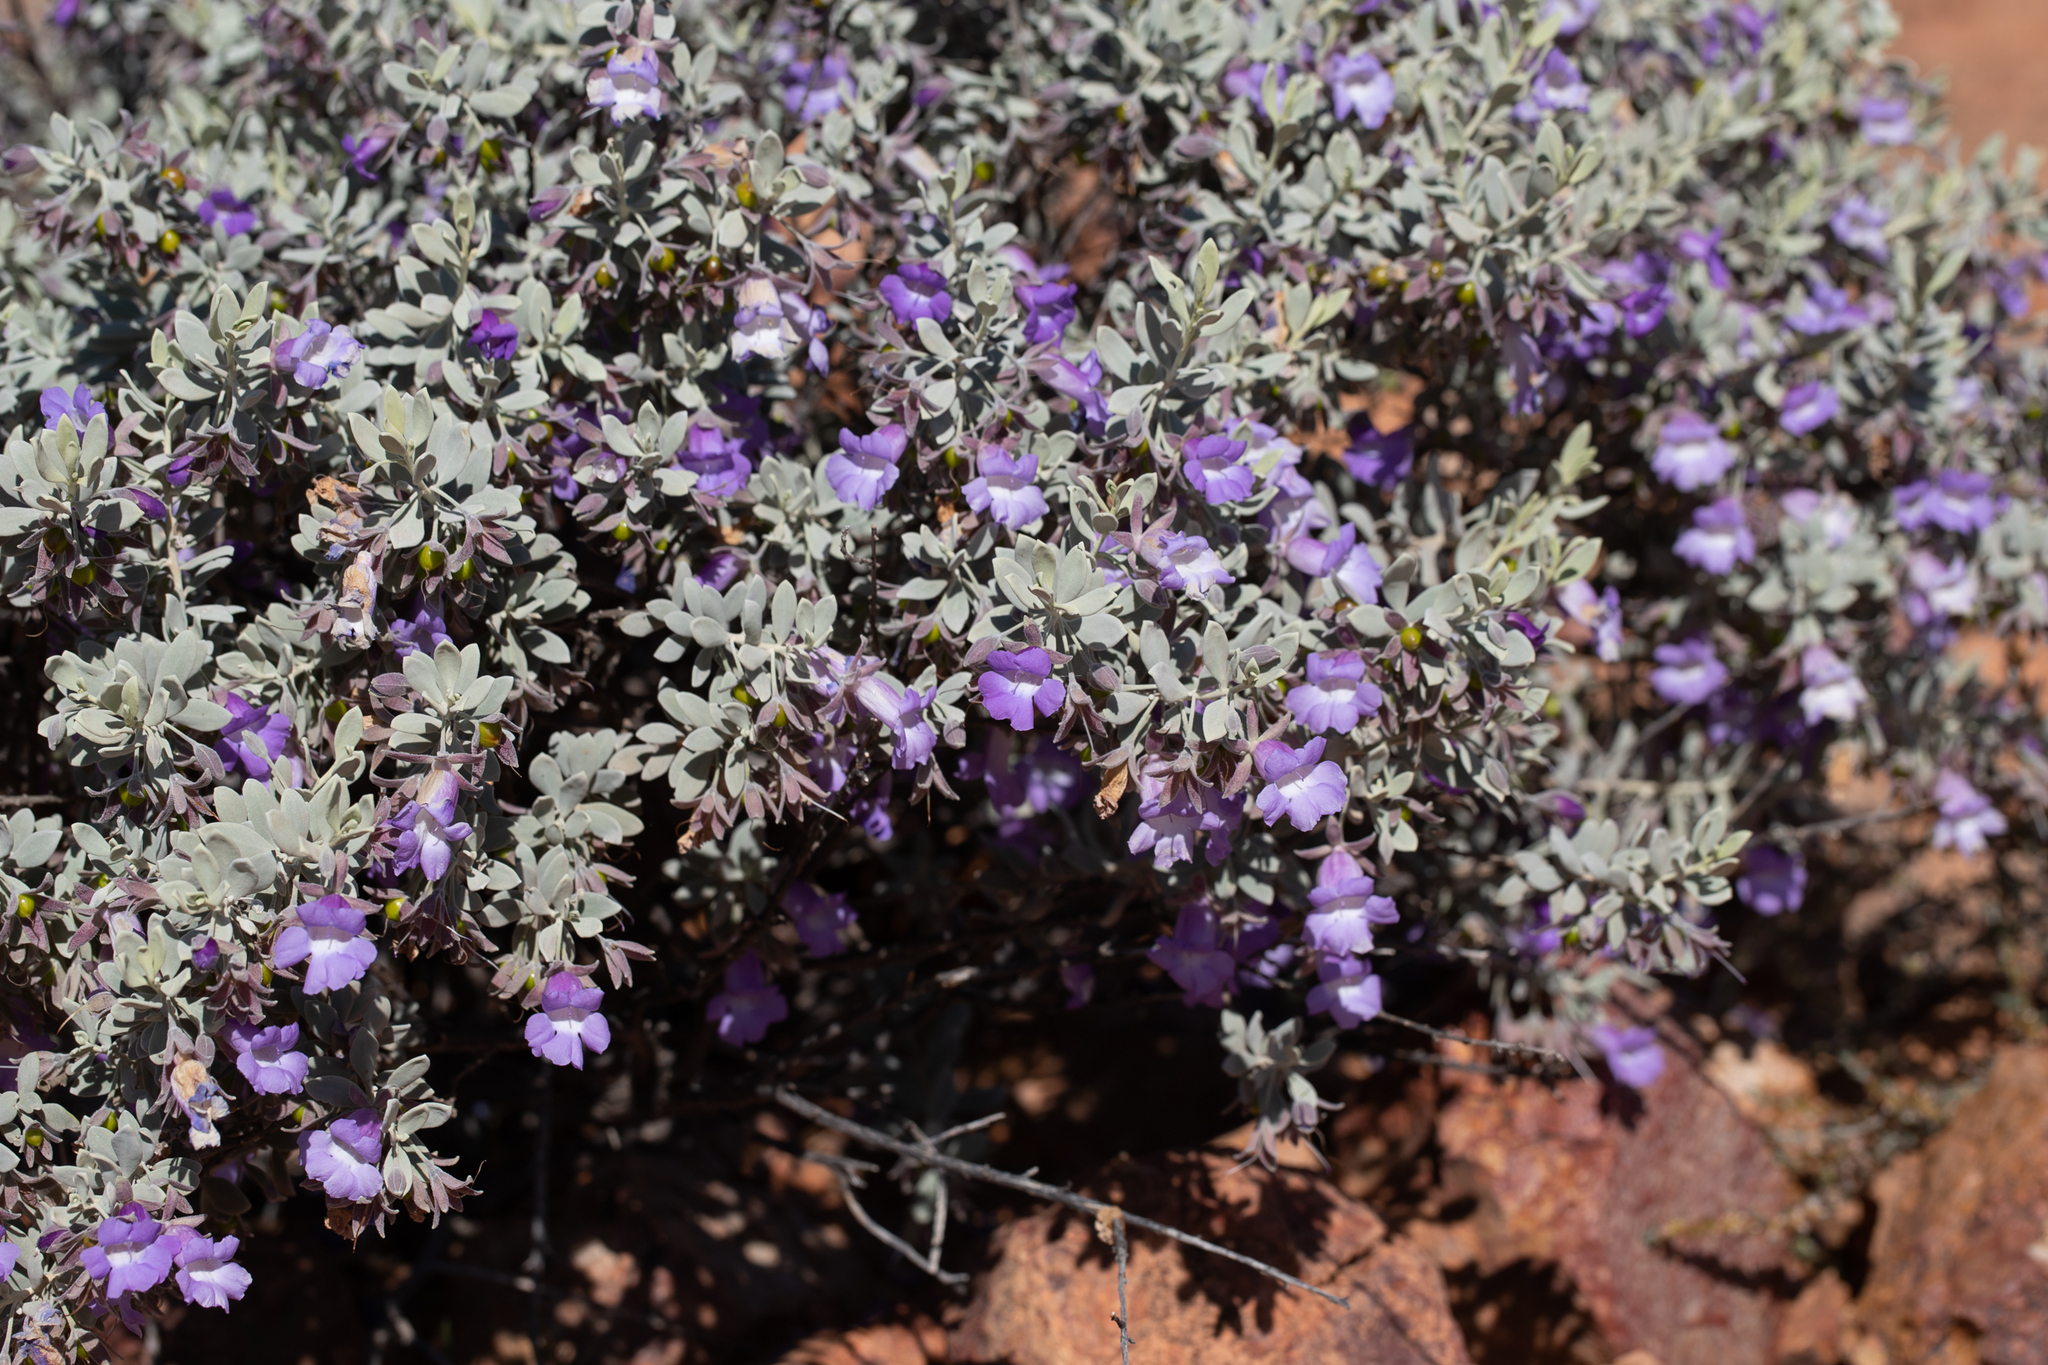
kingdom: Plantae
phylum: Tracheophyta
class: Magnoliopsida
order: Lamiales
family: Scrophulariaceae
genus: Eremophila
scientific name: Eremophila bowmanii
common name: Silver turkeybush
